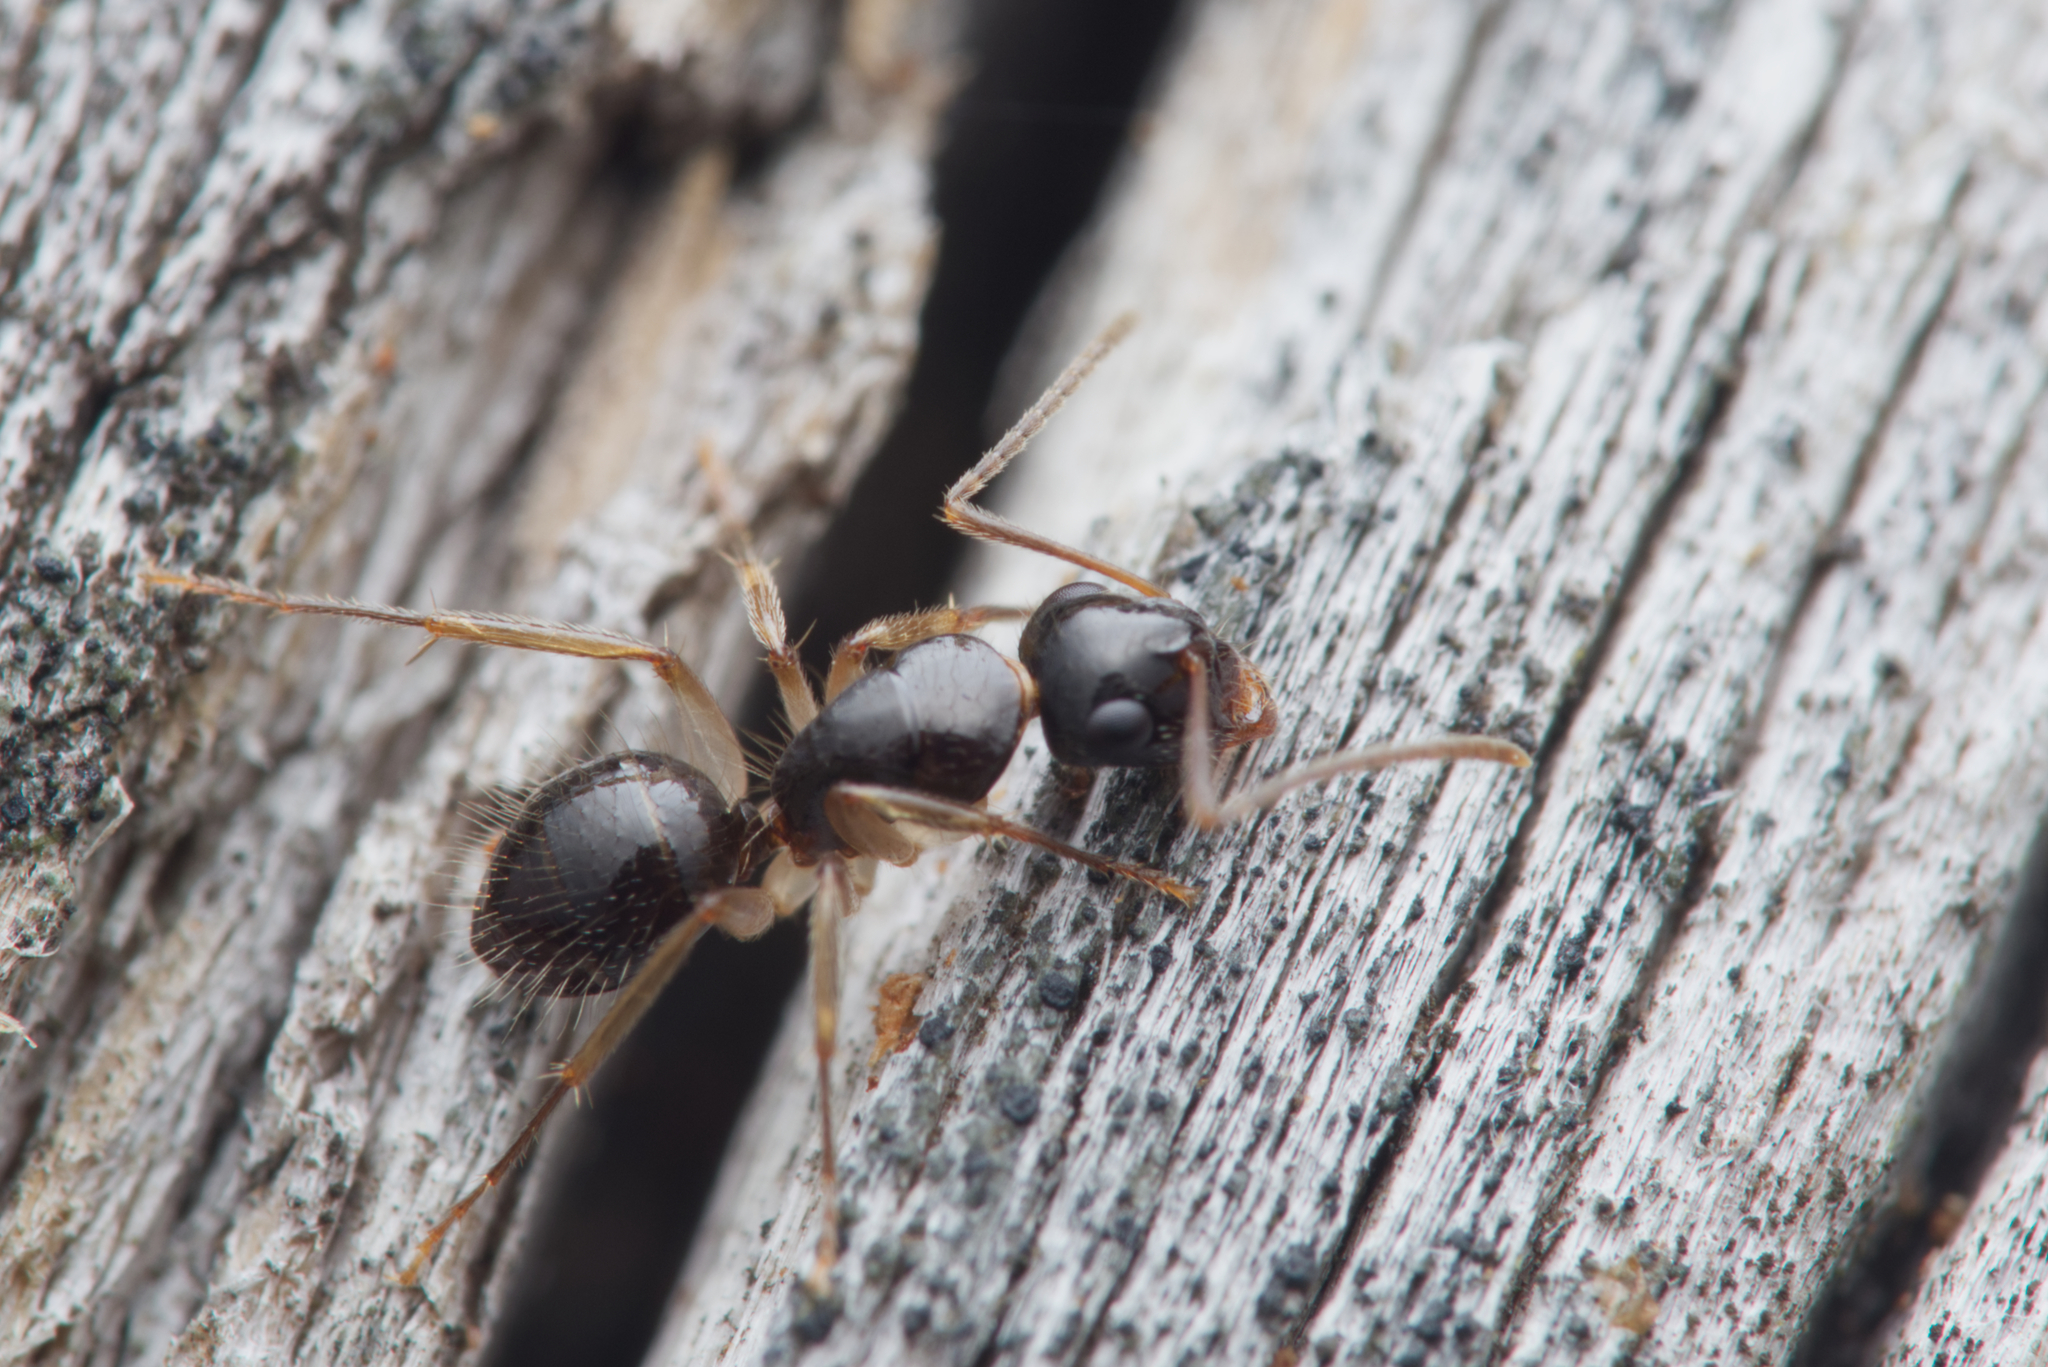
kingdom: Animalia
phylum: Arthropoda
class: Insecta
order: Hymenoptera
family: Formicidae
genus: Camponotus
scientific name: Camponotus lownei
